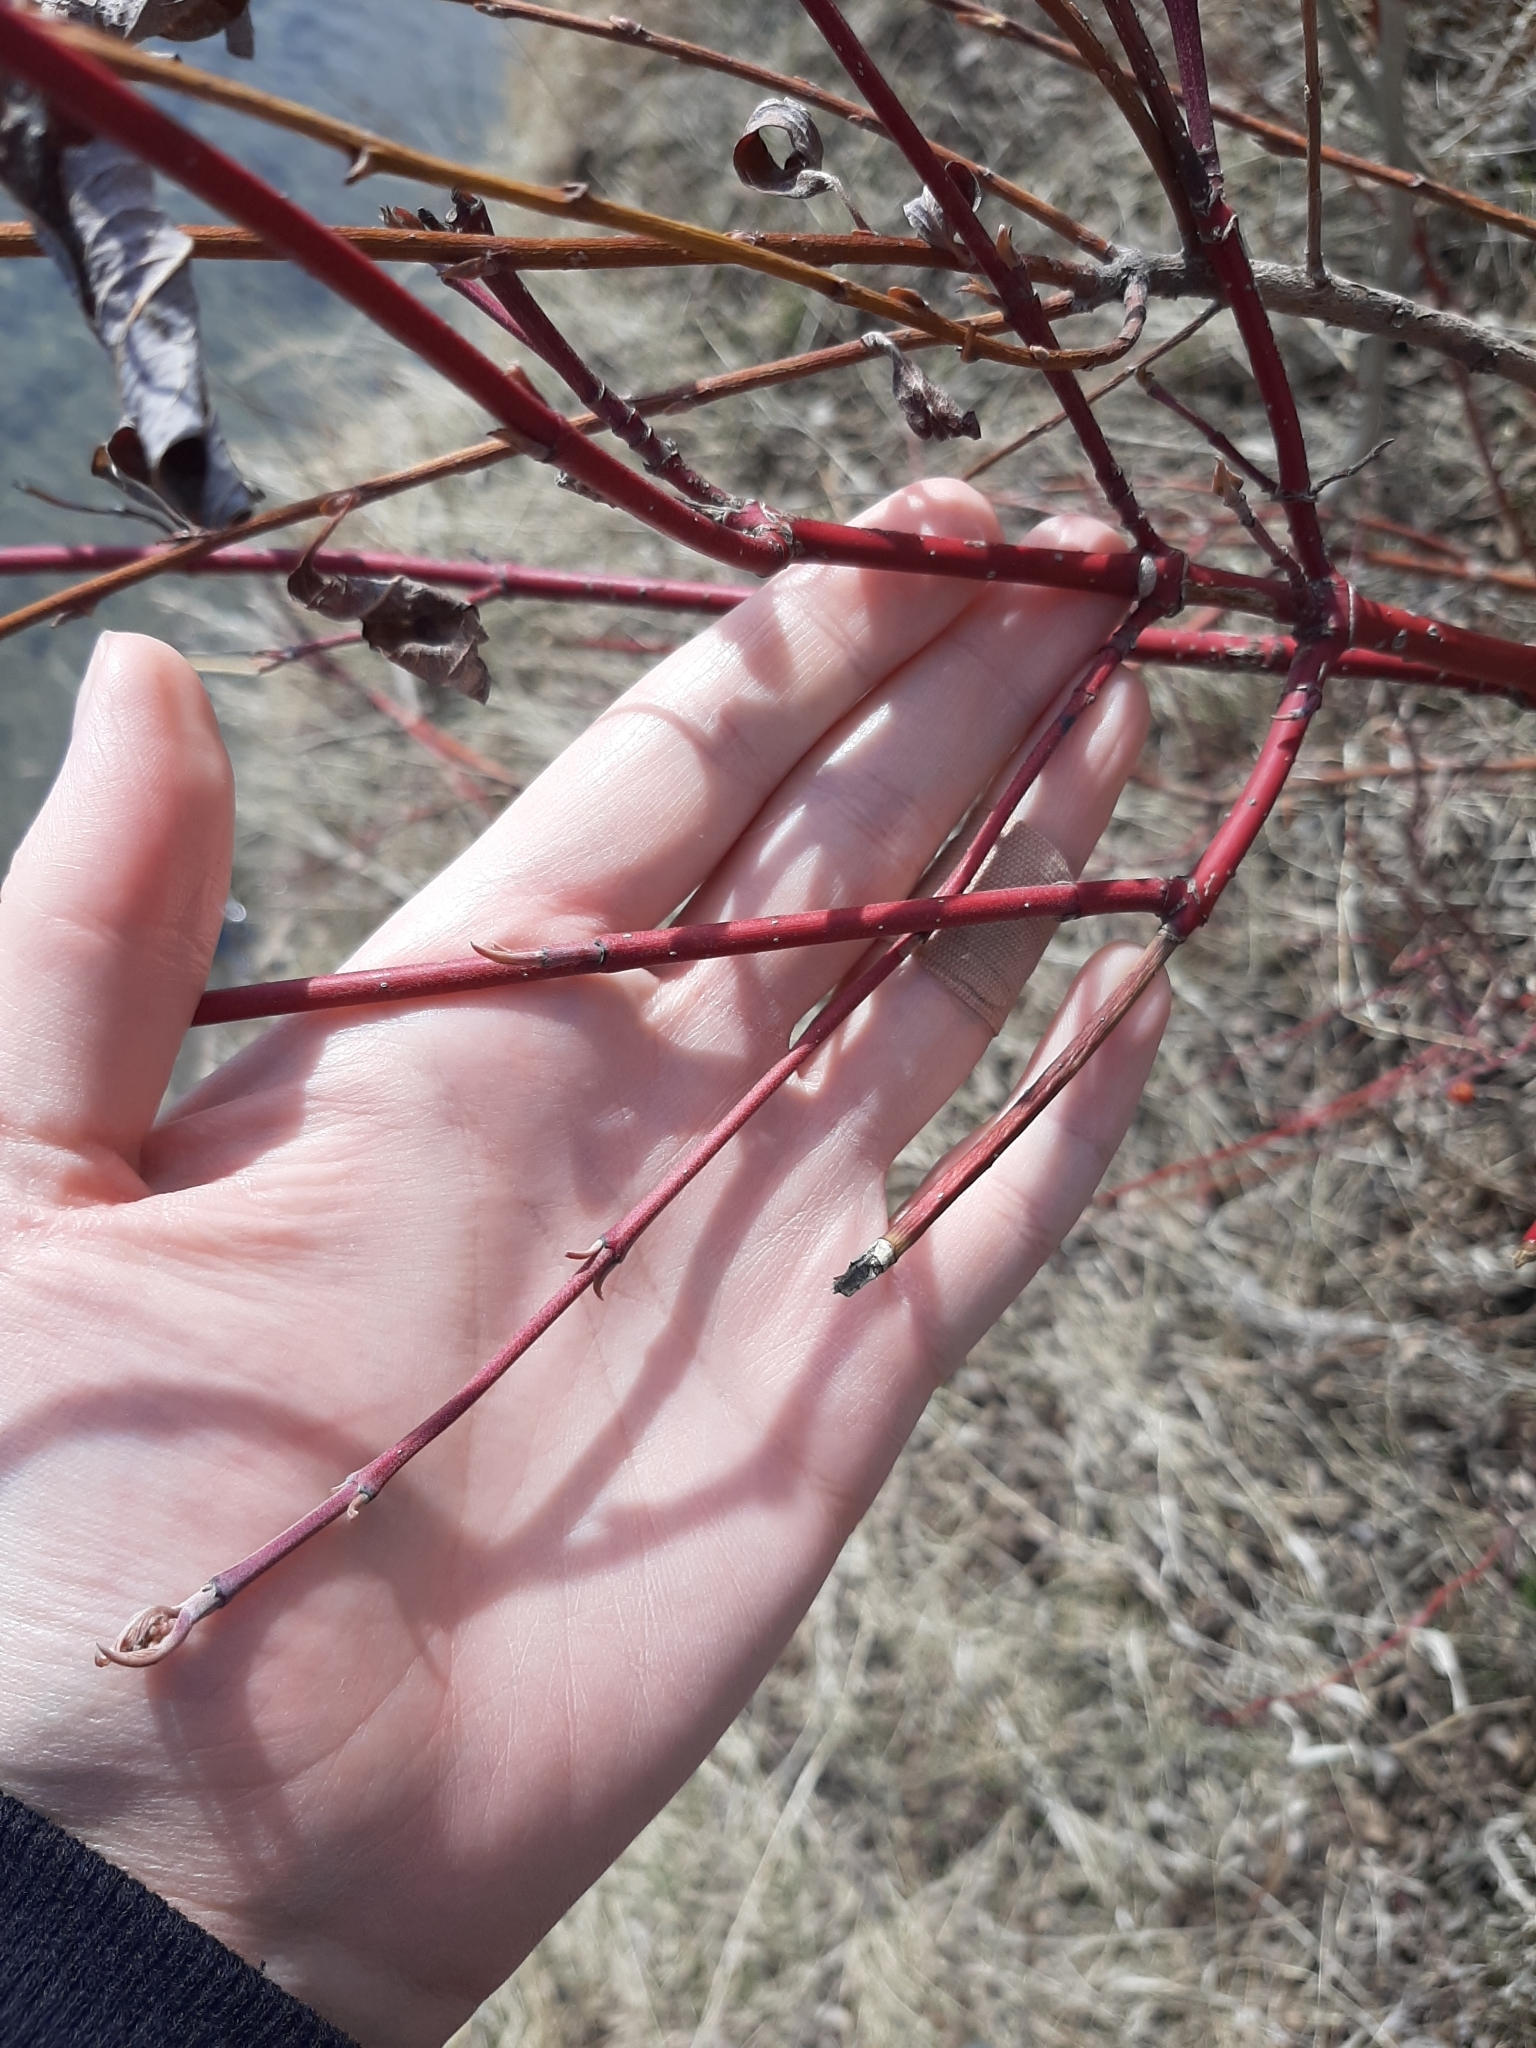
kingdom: Plantae
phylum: Tracheophyta
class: Magnoliopsida
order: Cornales
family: Cornaceae
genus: Cornus
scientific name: Cornus sericea
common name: Red-osier dogwood
